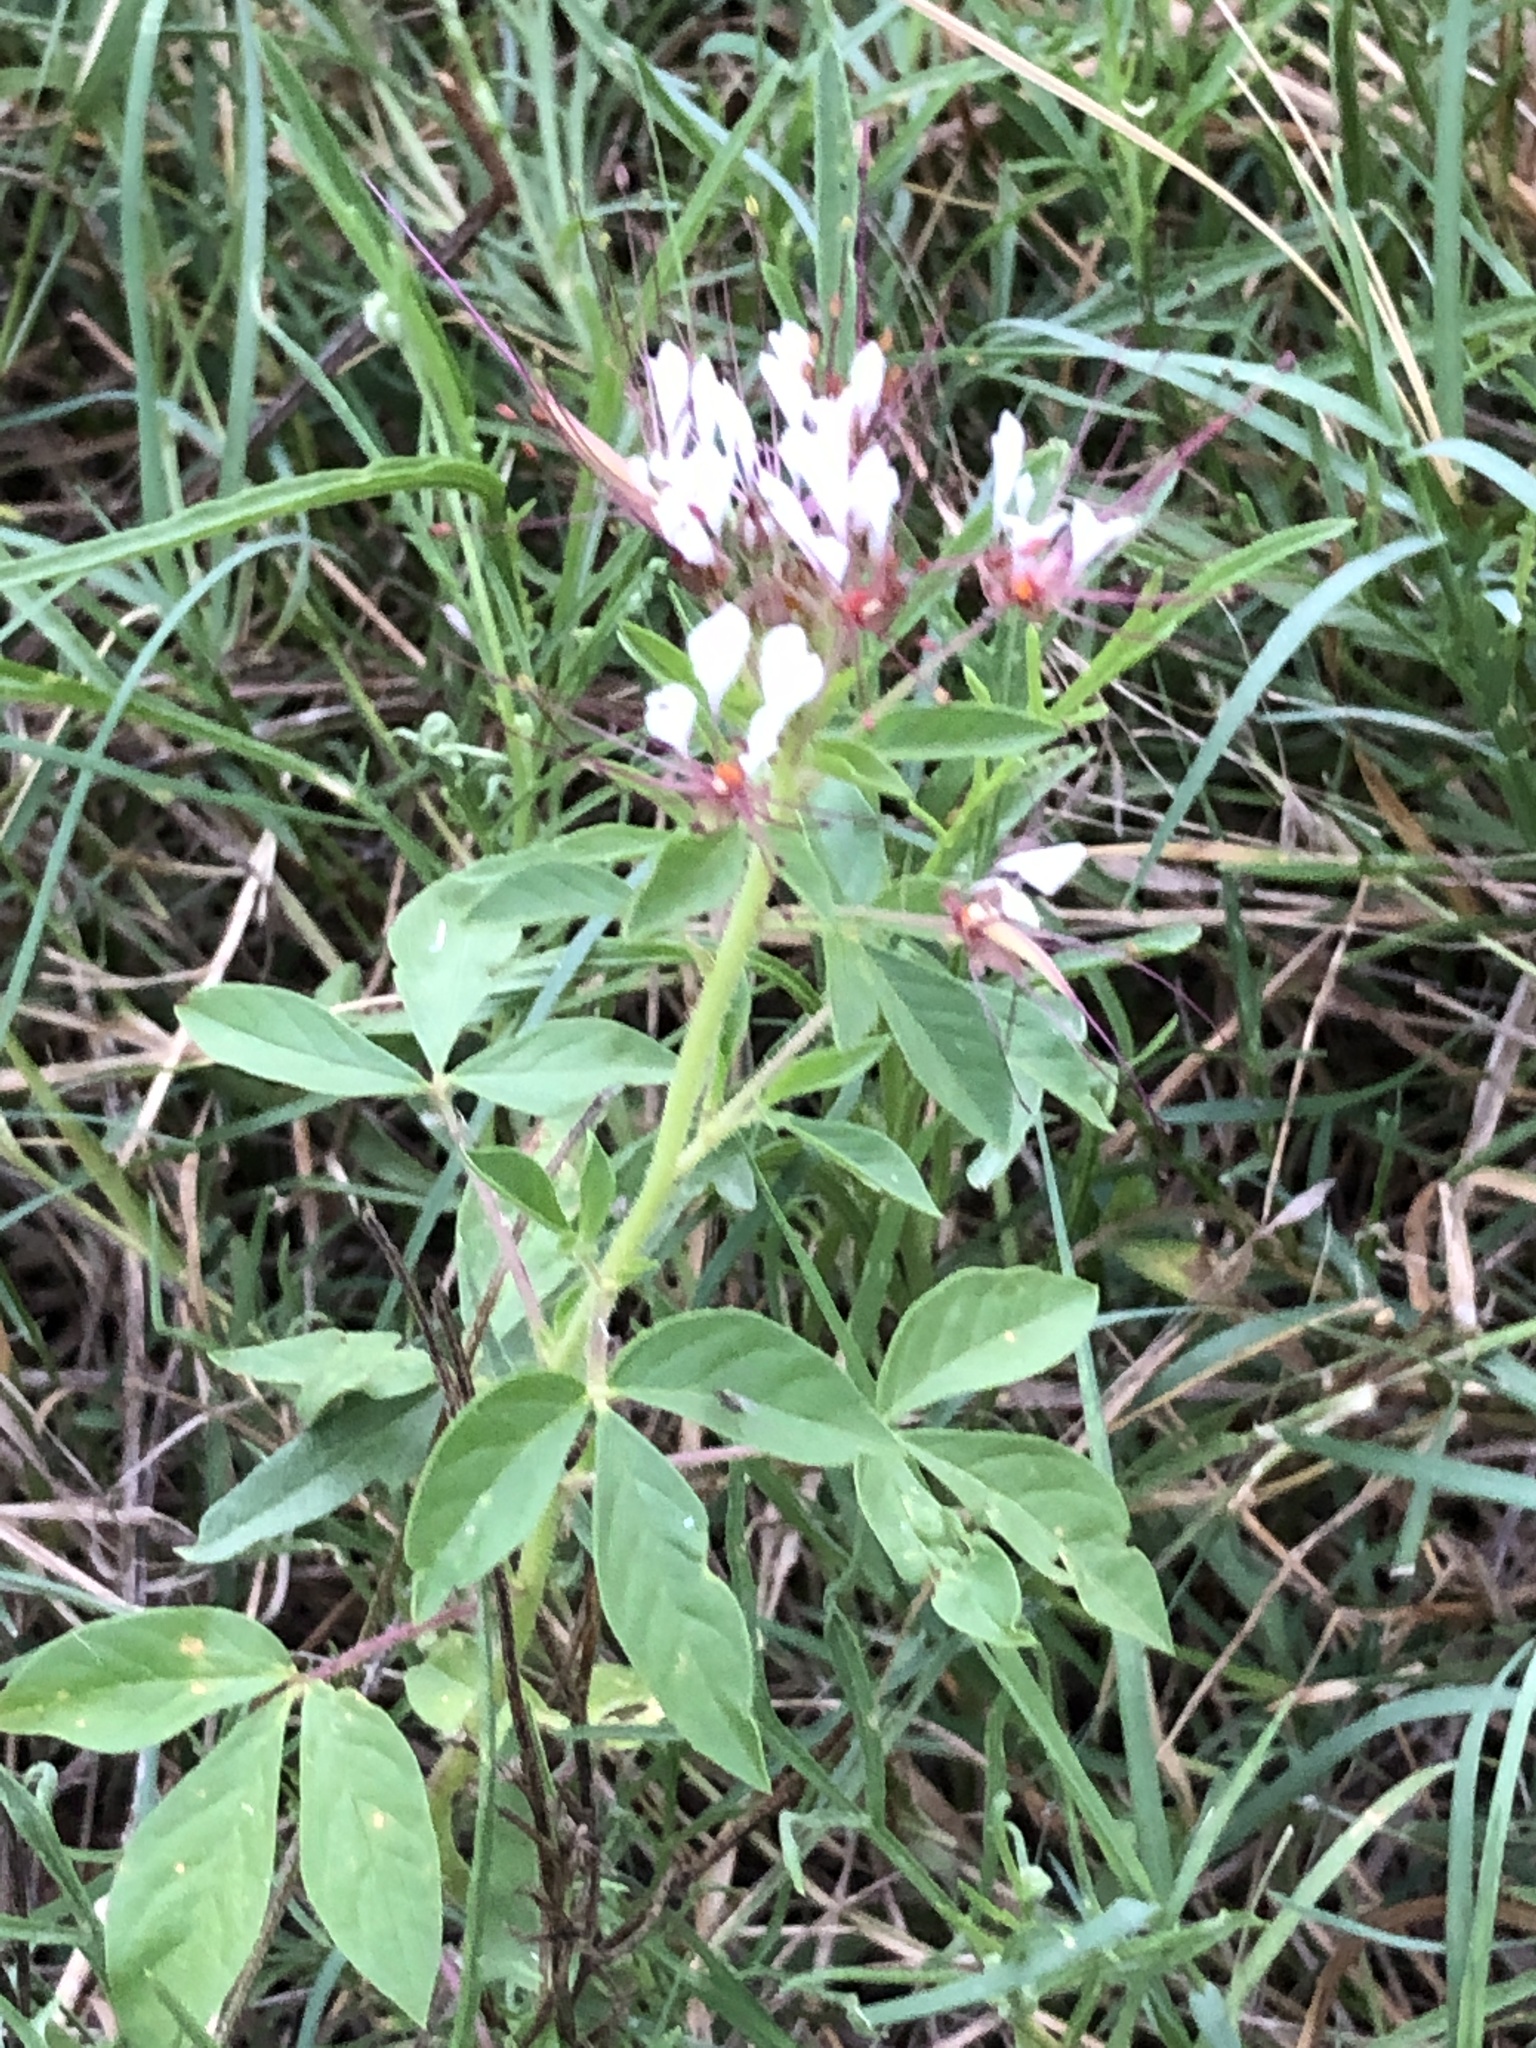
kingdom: Plantae
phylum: Tracheophyta
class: Magnoliopsida
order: Brassicales
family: Cleomaceae
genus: Polanisia
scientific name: Polanisia dodecandra
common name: Clammyweed
